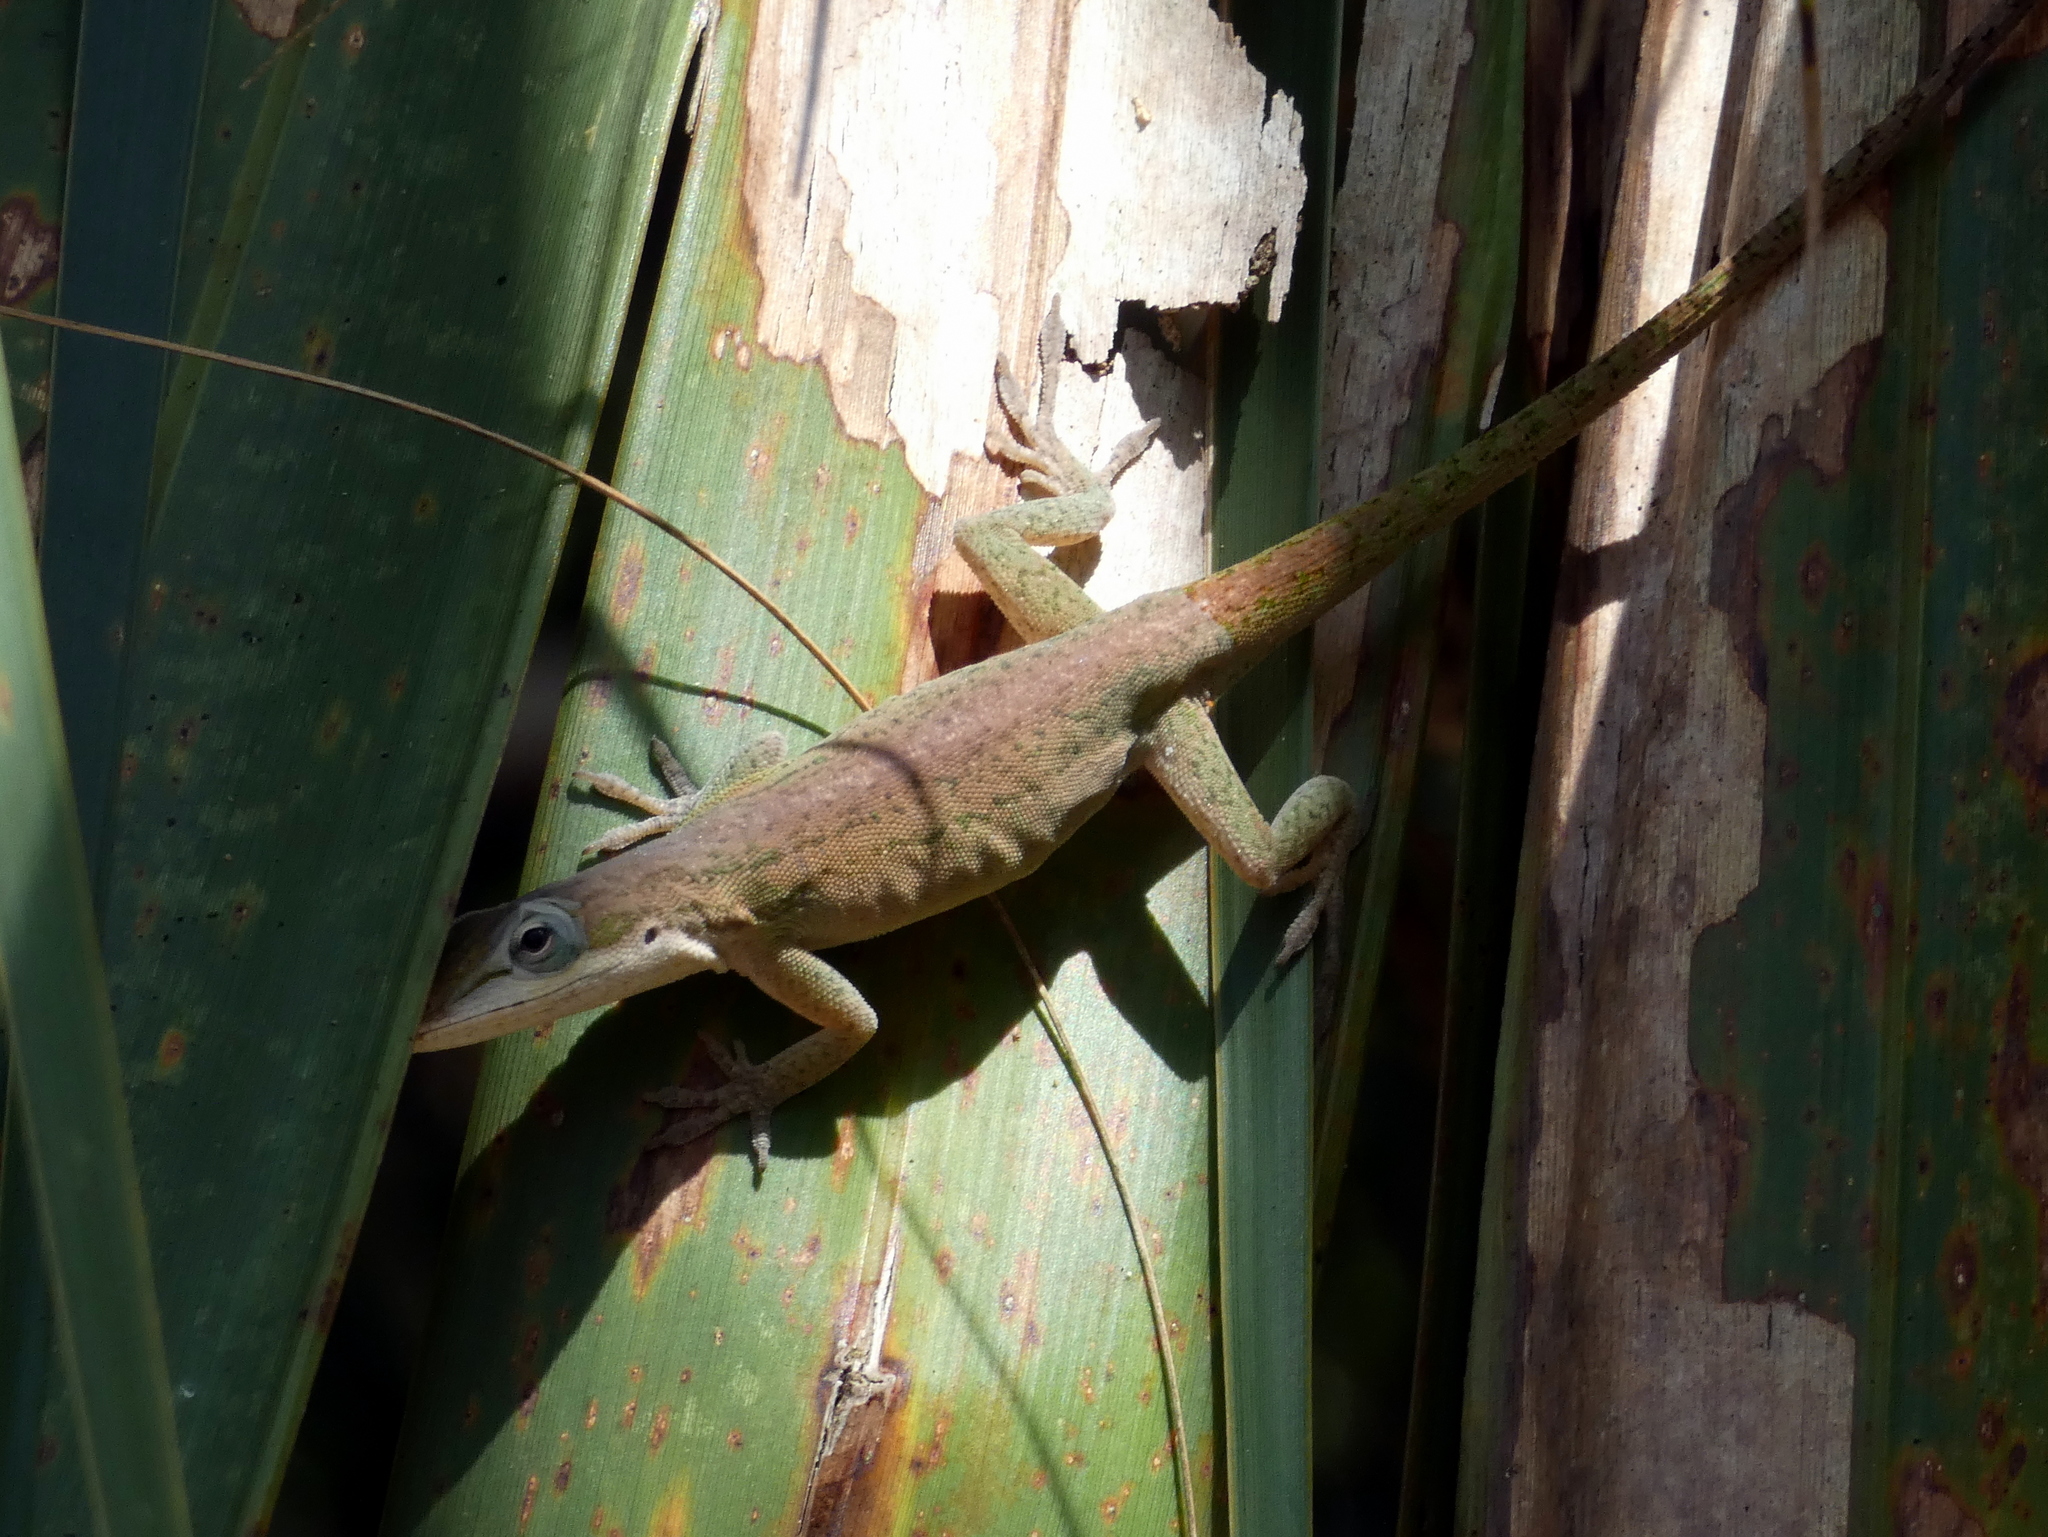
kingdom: Animalia
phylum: Chordata
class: Squamata
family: Dactyloidae
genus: Anolis
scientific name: Anolis carolinensis
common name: Green anole
